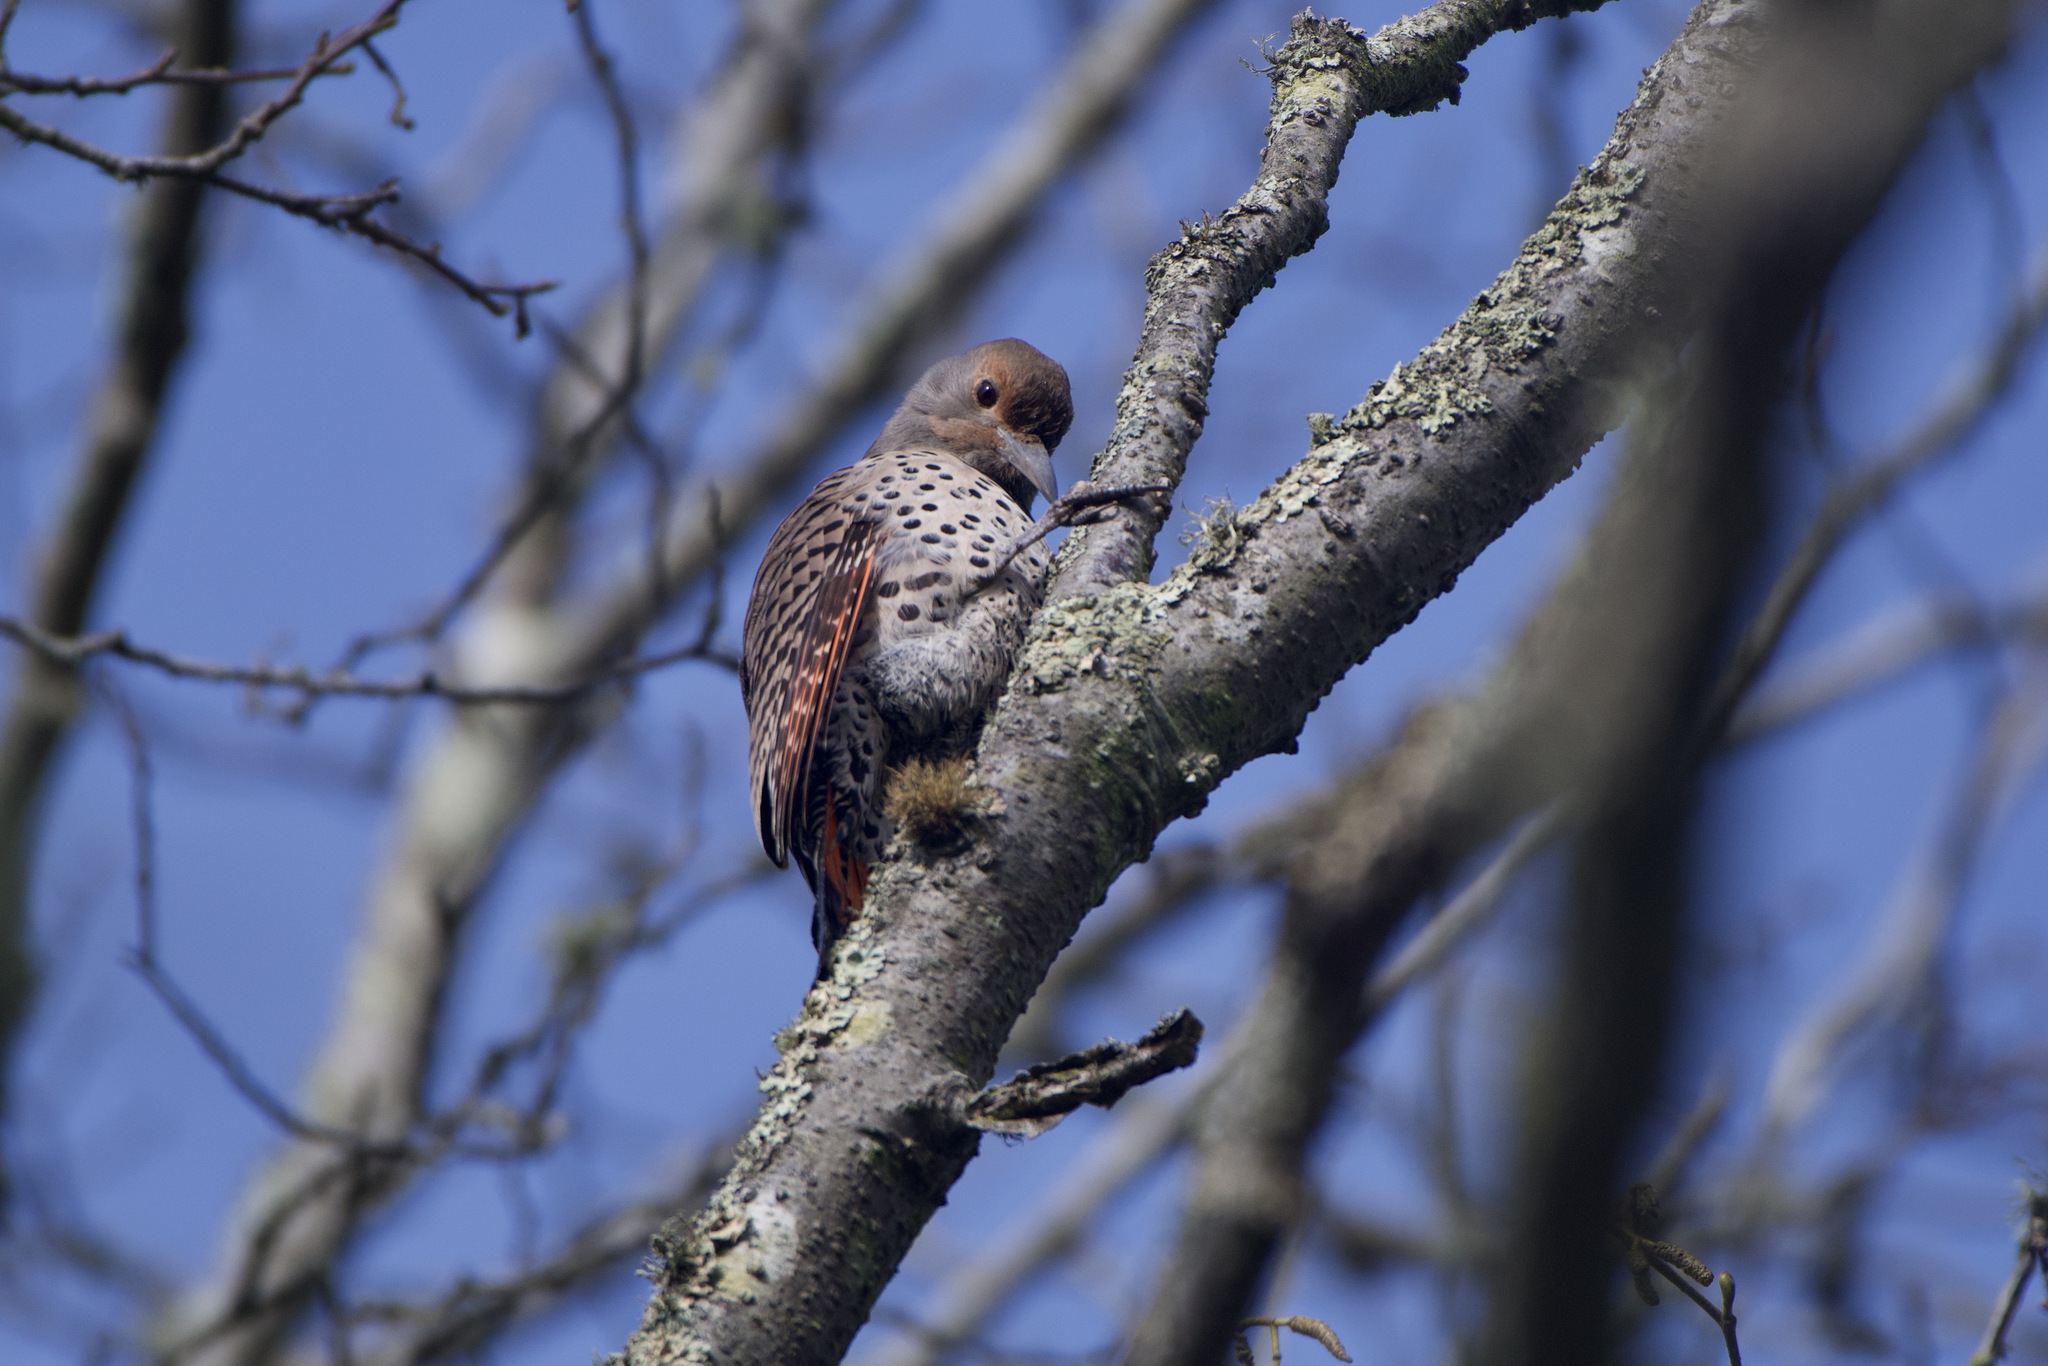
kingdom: Animalia
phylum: Chordata
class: Aves
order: Piciformes
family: Picidae
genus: Colaptes
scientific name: Colaptes auratus
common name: Northern flicker
